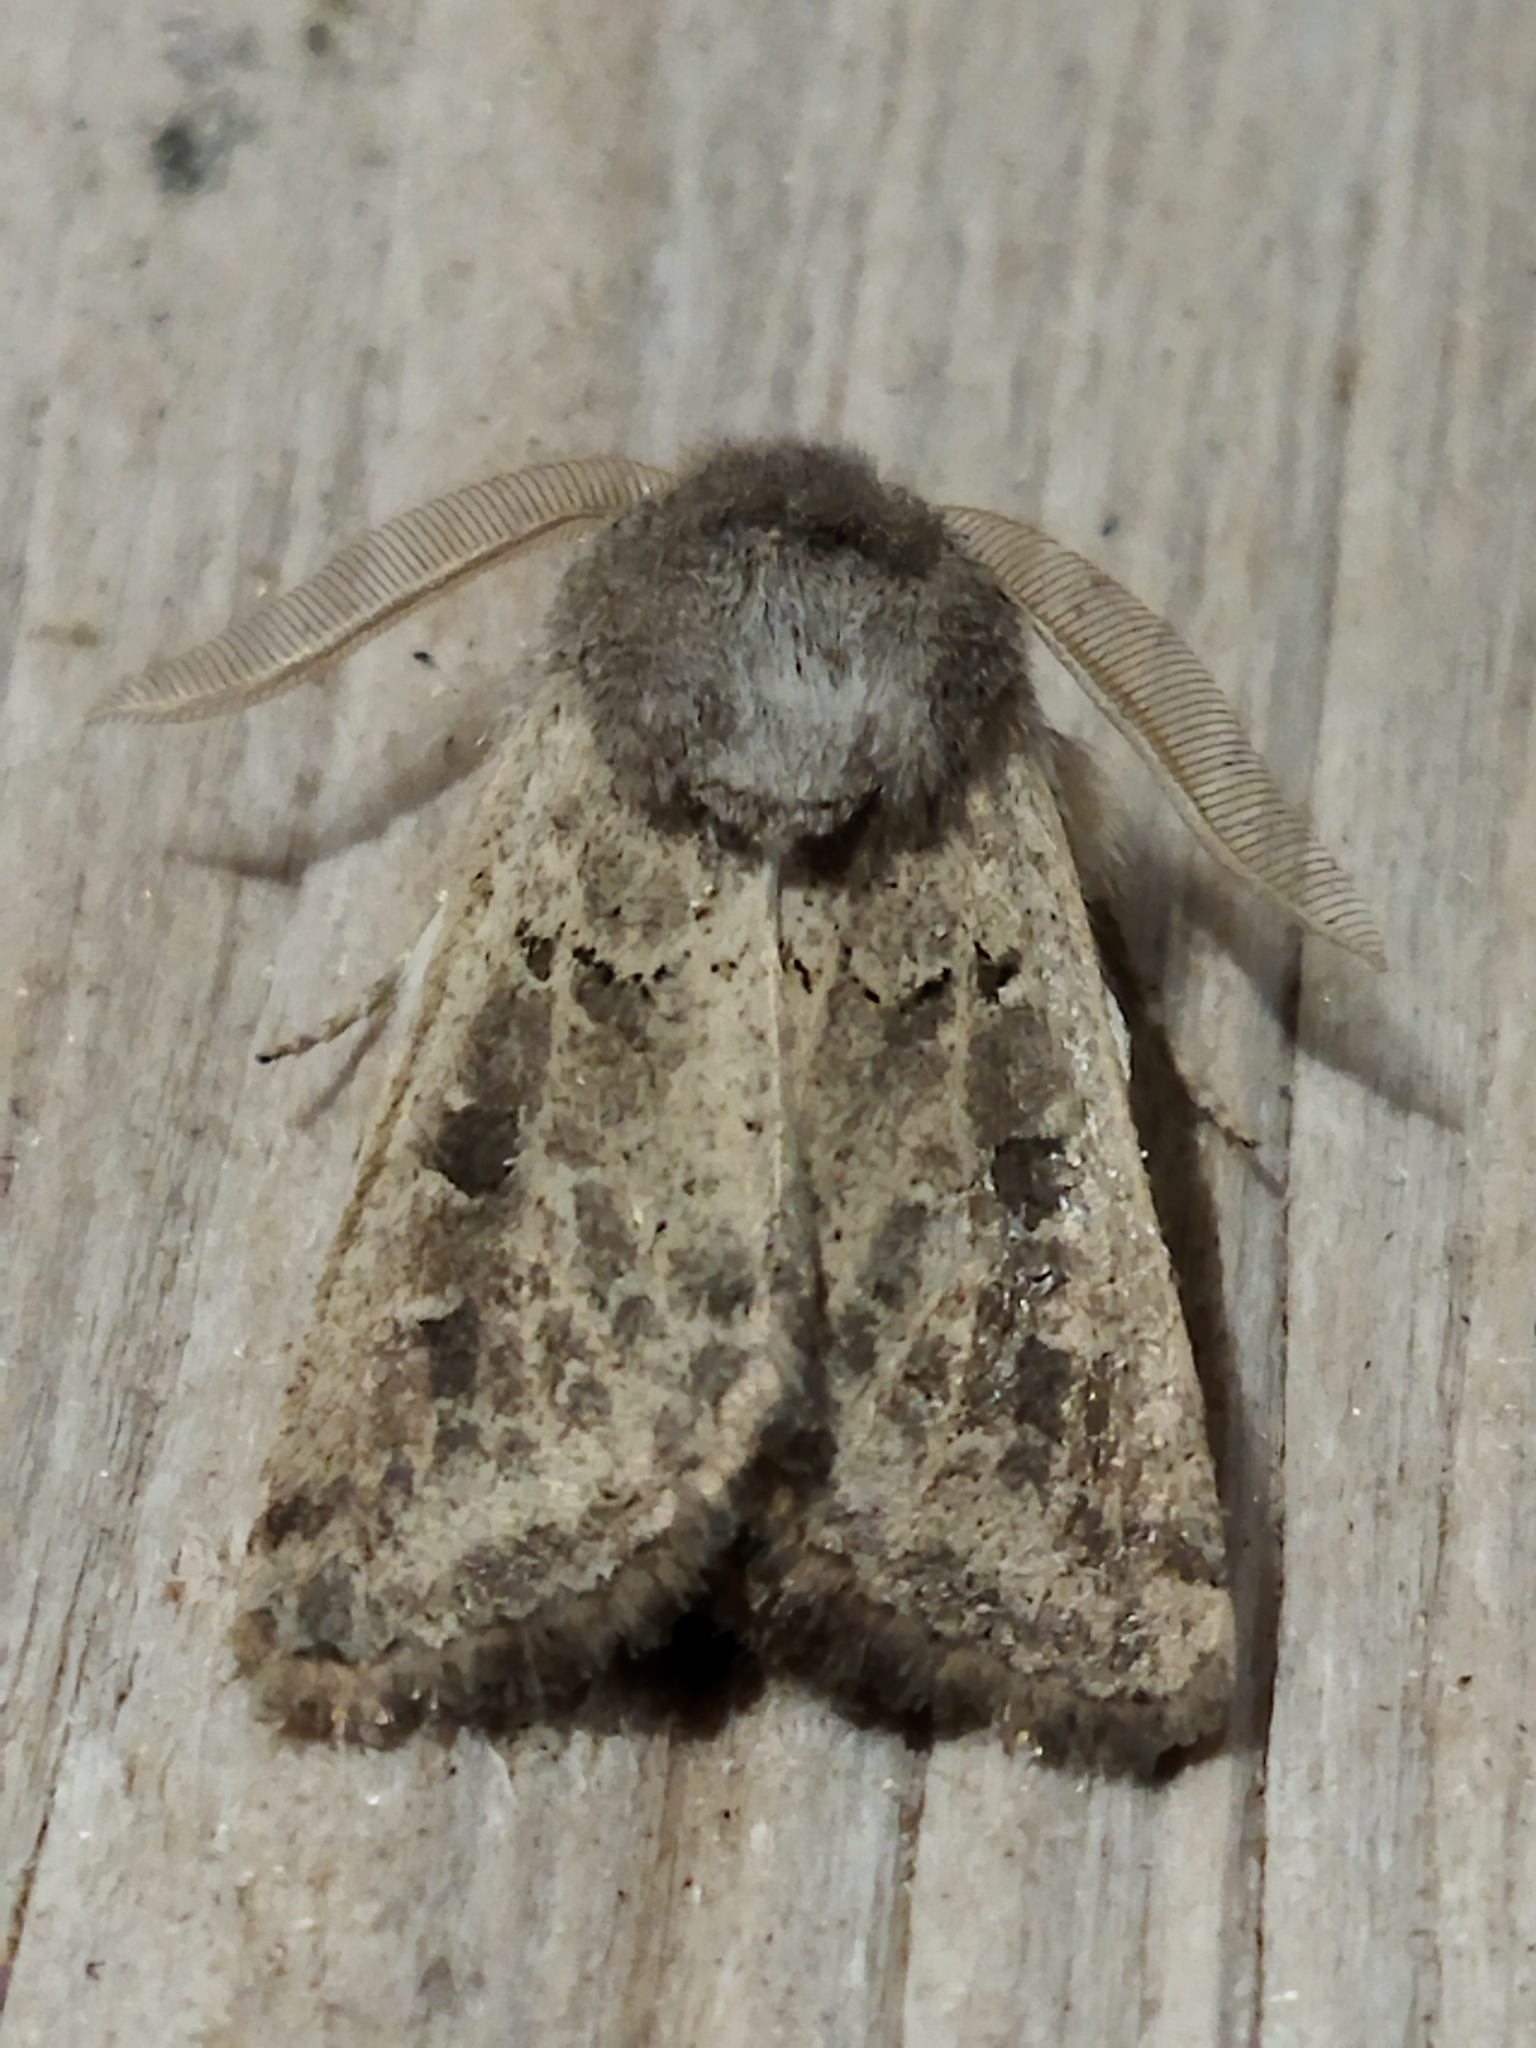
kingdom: Animalia
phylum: Arthropoda
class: Insecta
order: Lepidoptera
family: Noctuidae
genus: Episema
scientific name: Episema lederi
